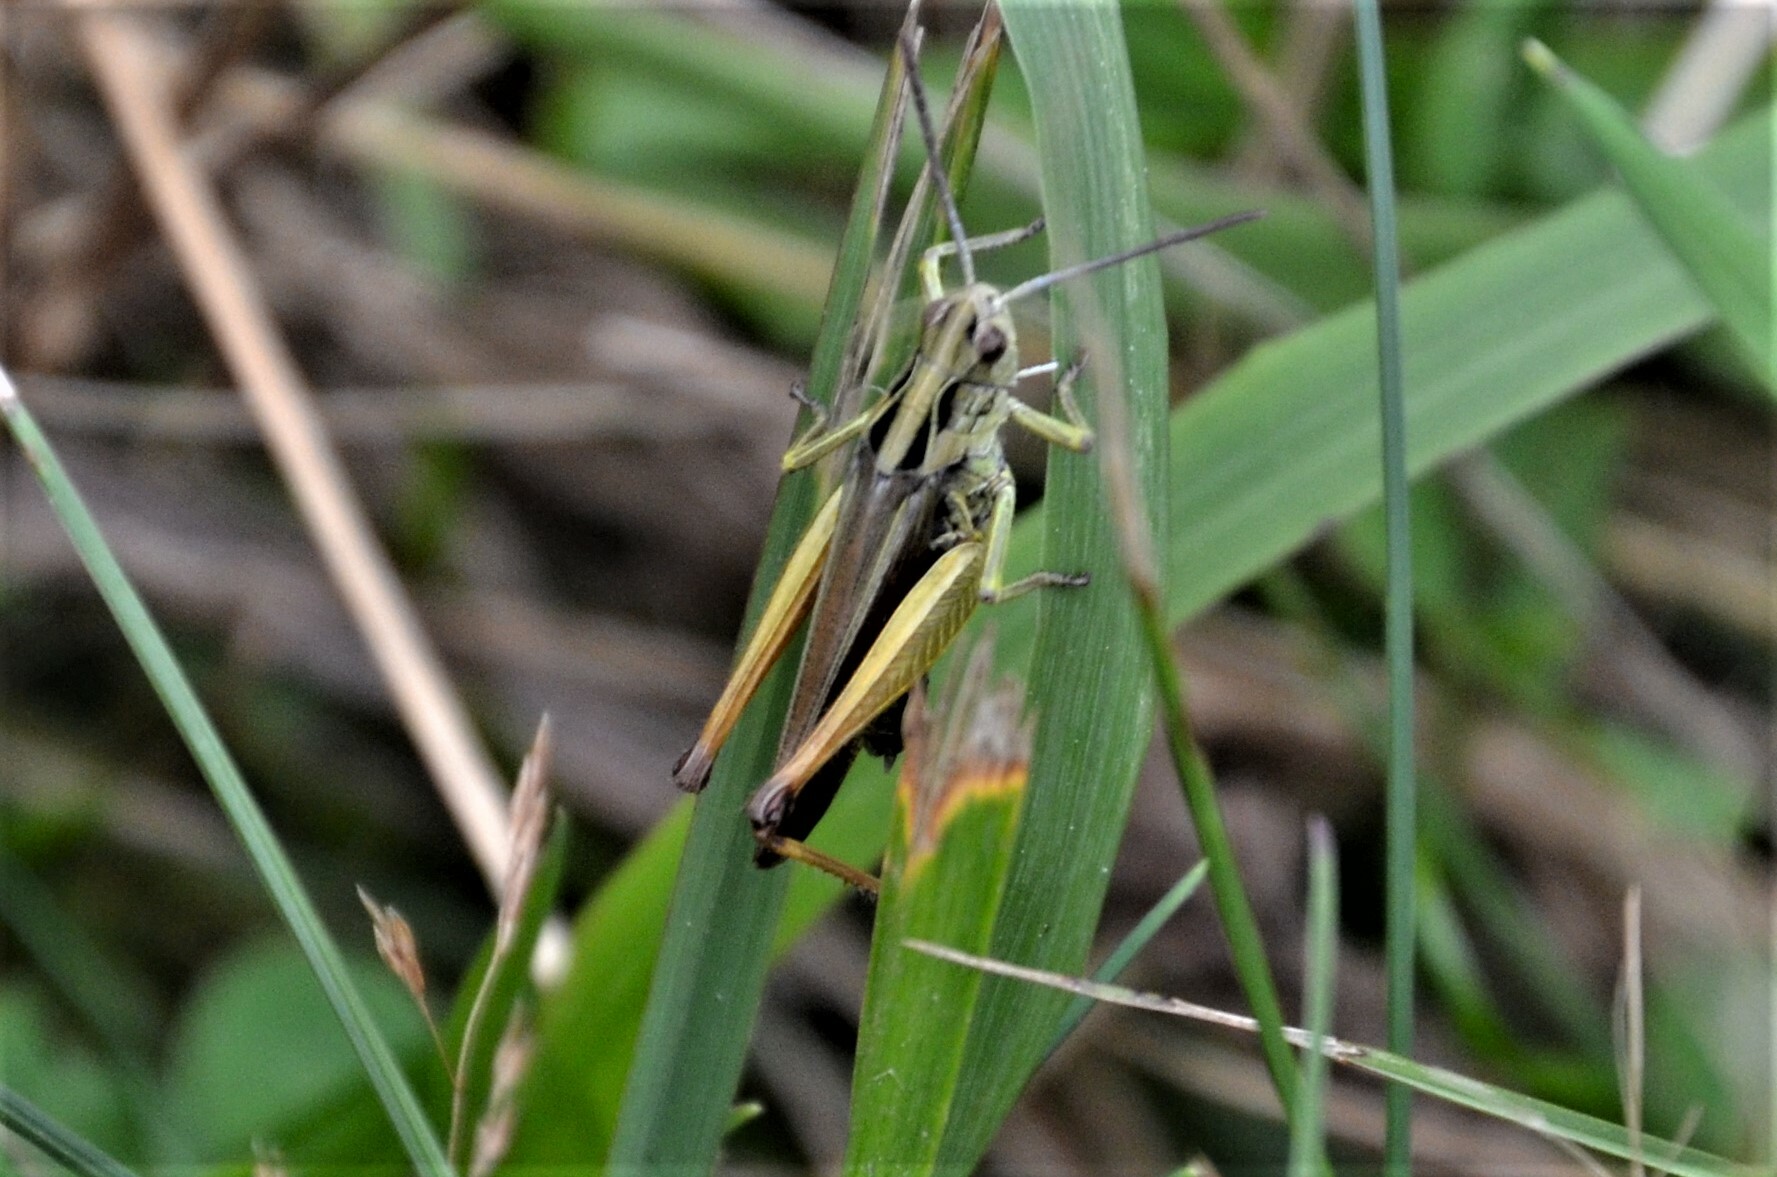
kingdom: Animalia
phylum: Arthropoda
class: Insecta
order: Orthoptera
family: Acrididae
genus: Omocestus
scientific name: Omocestus viridulus
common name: Common green grasshopper
